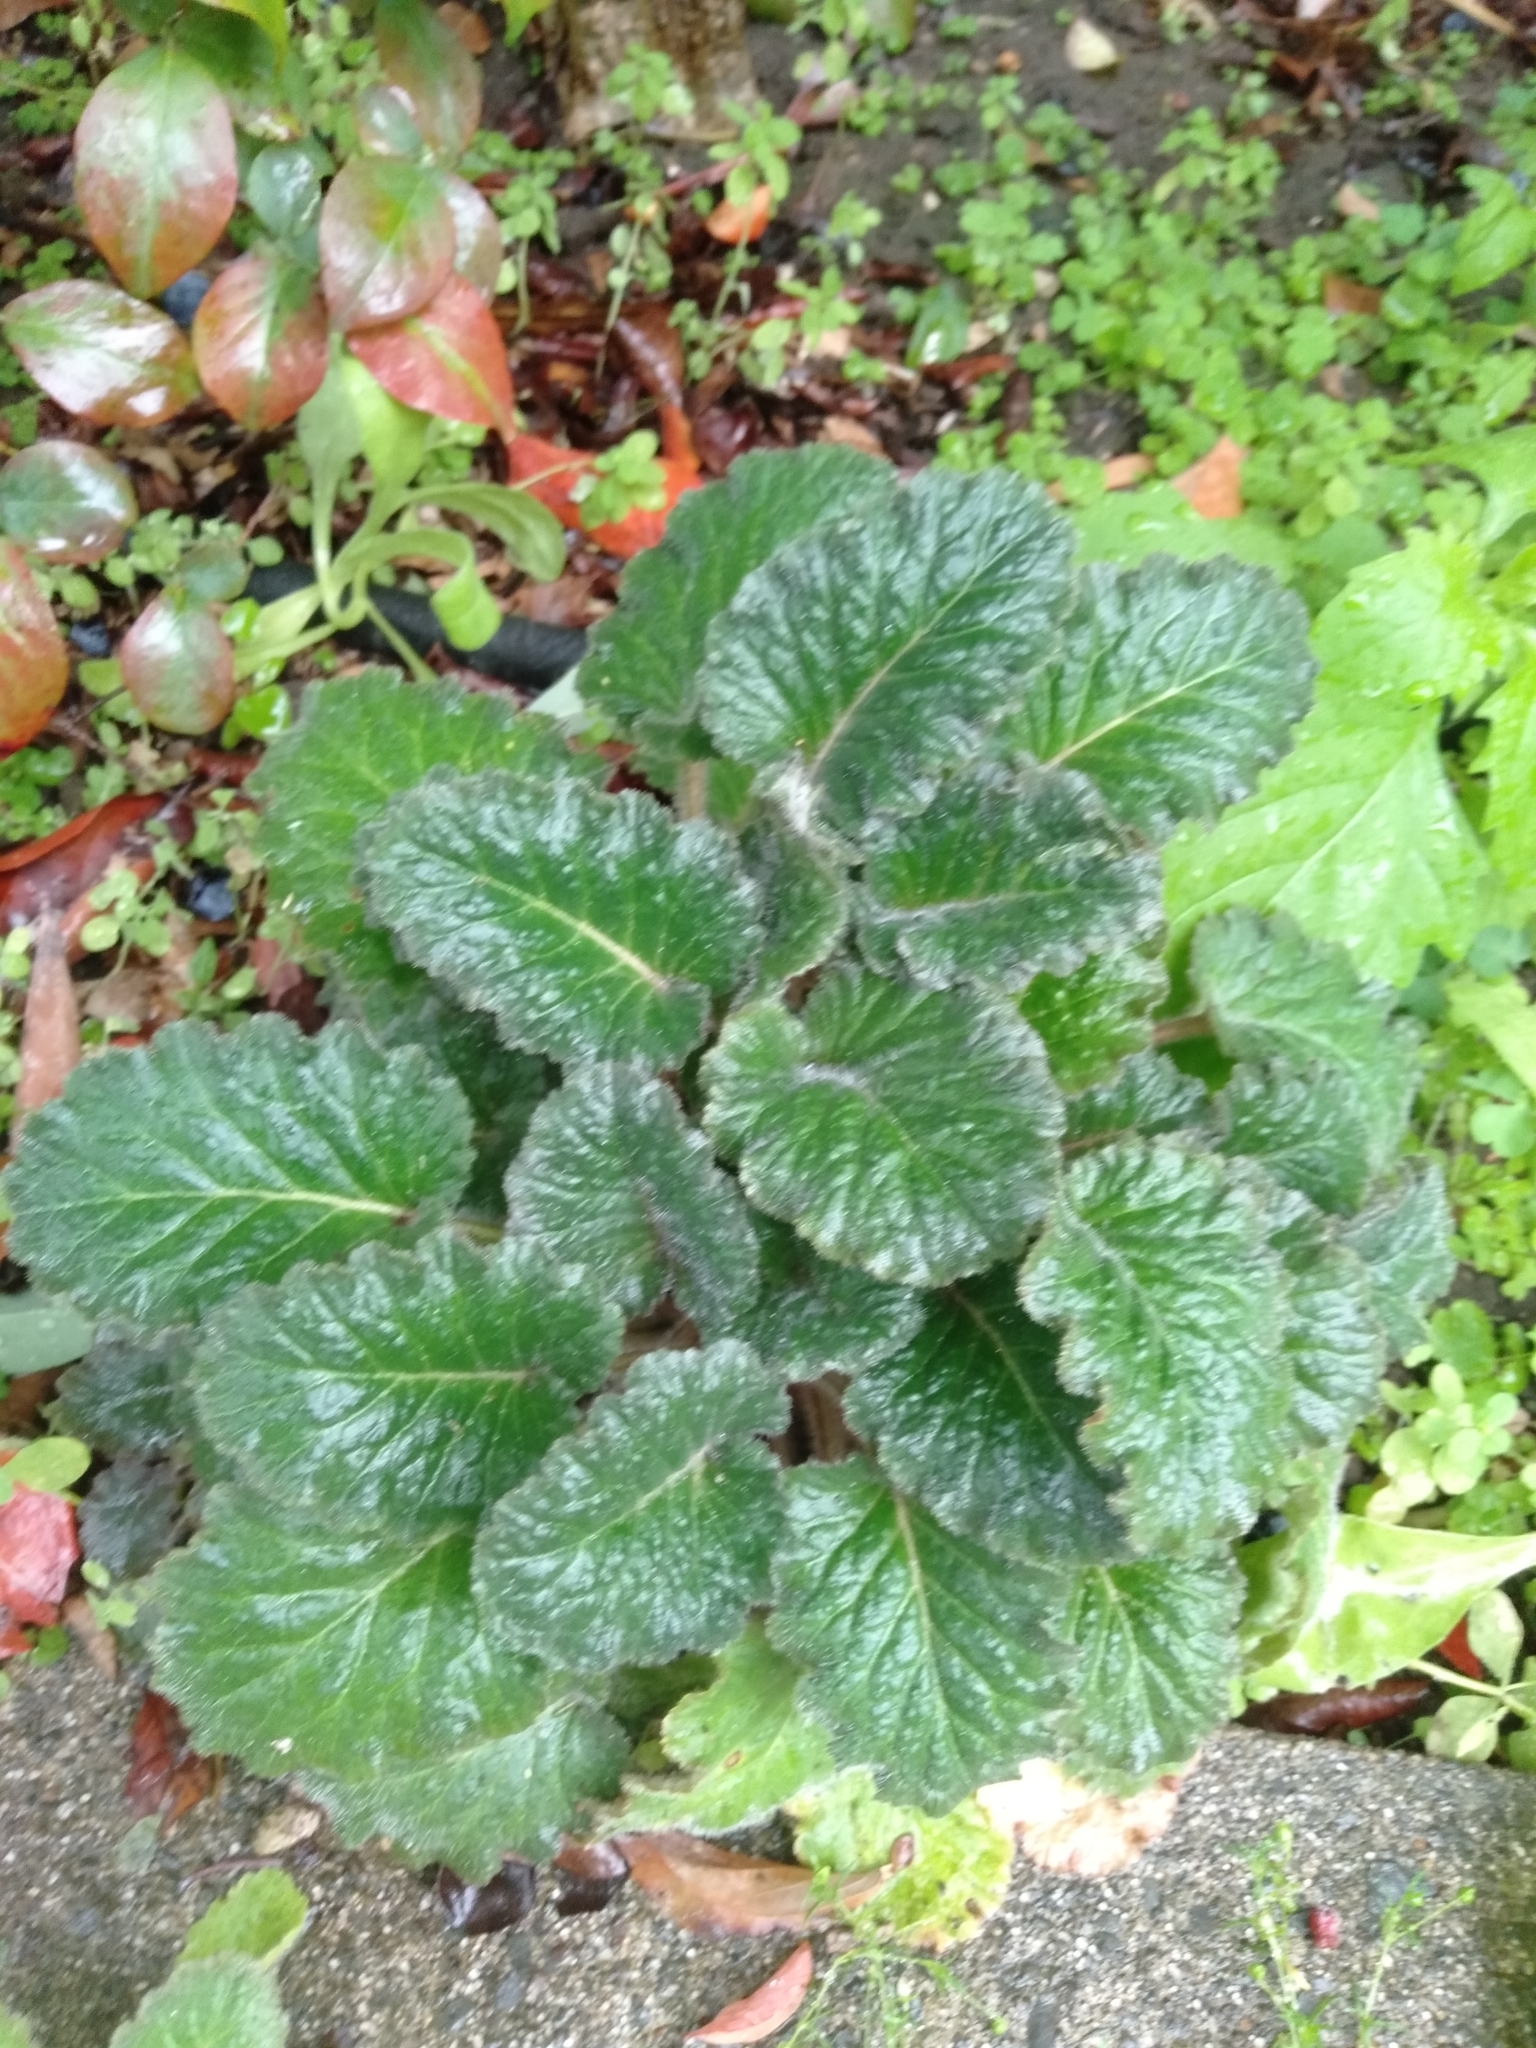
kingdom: Plantae
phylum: Tracheophyta
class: Magnoliopsida
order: Ericales
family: Primulaceae
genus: Primula
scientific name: Primula malacoides
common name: Baby primrose
